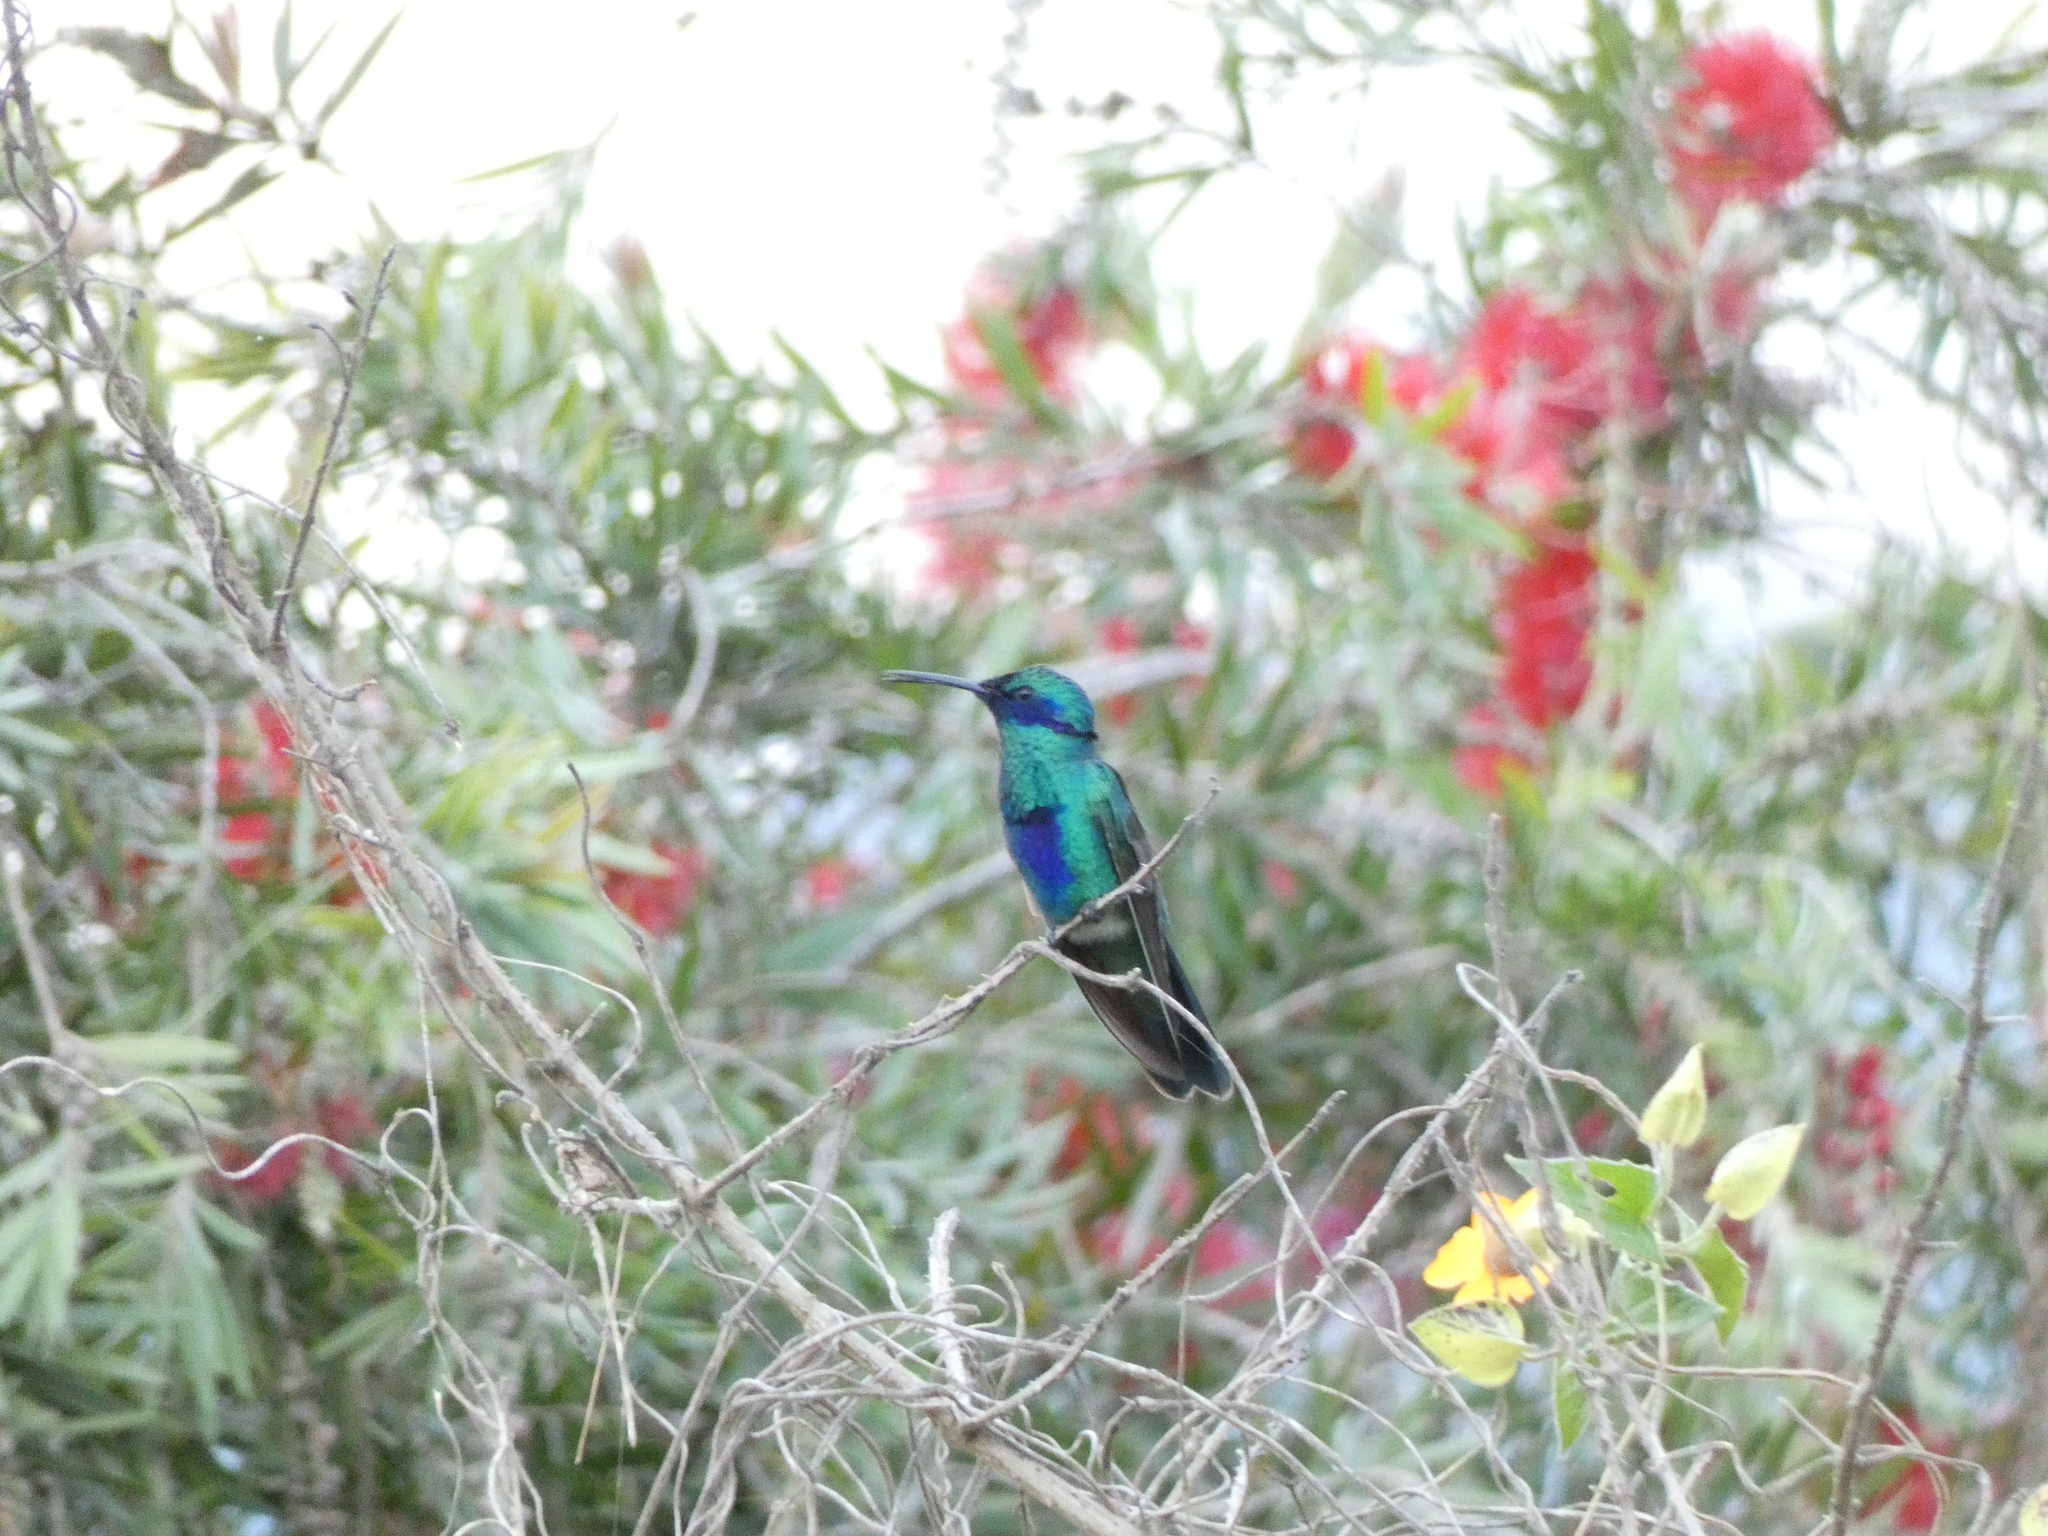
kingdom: Animalia
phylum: Chordata
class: Aves
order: Apodiformes
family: Trochilidae
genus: Colibri
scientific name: Colibri coruscans
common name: Sparkling violetear
